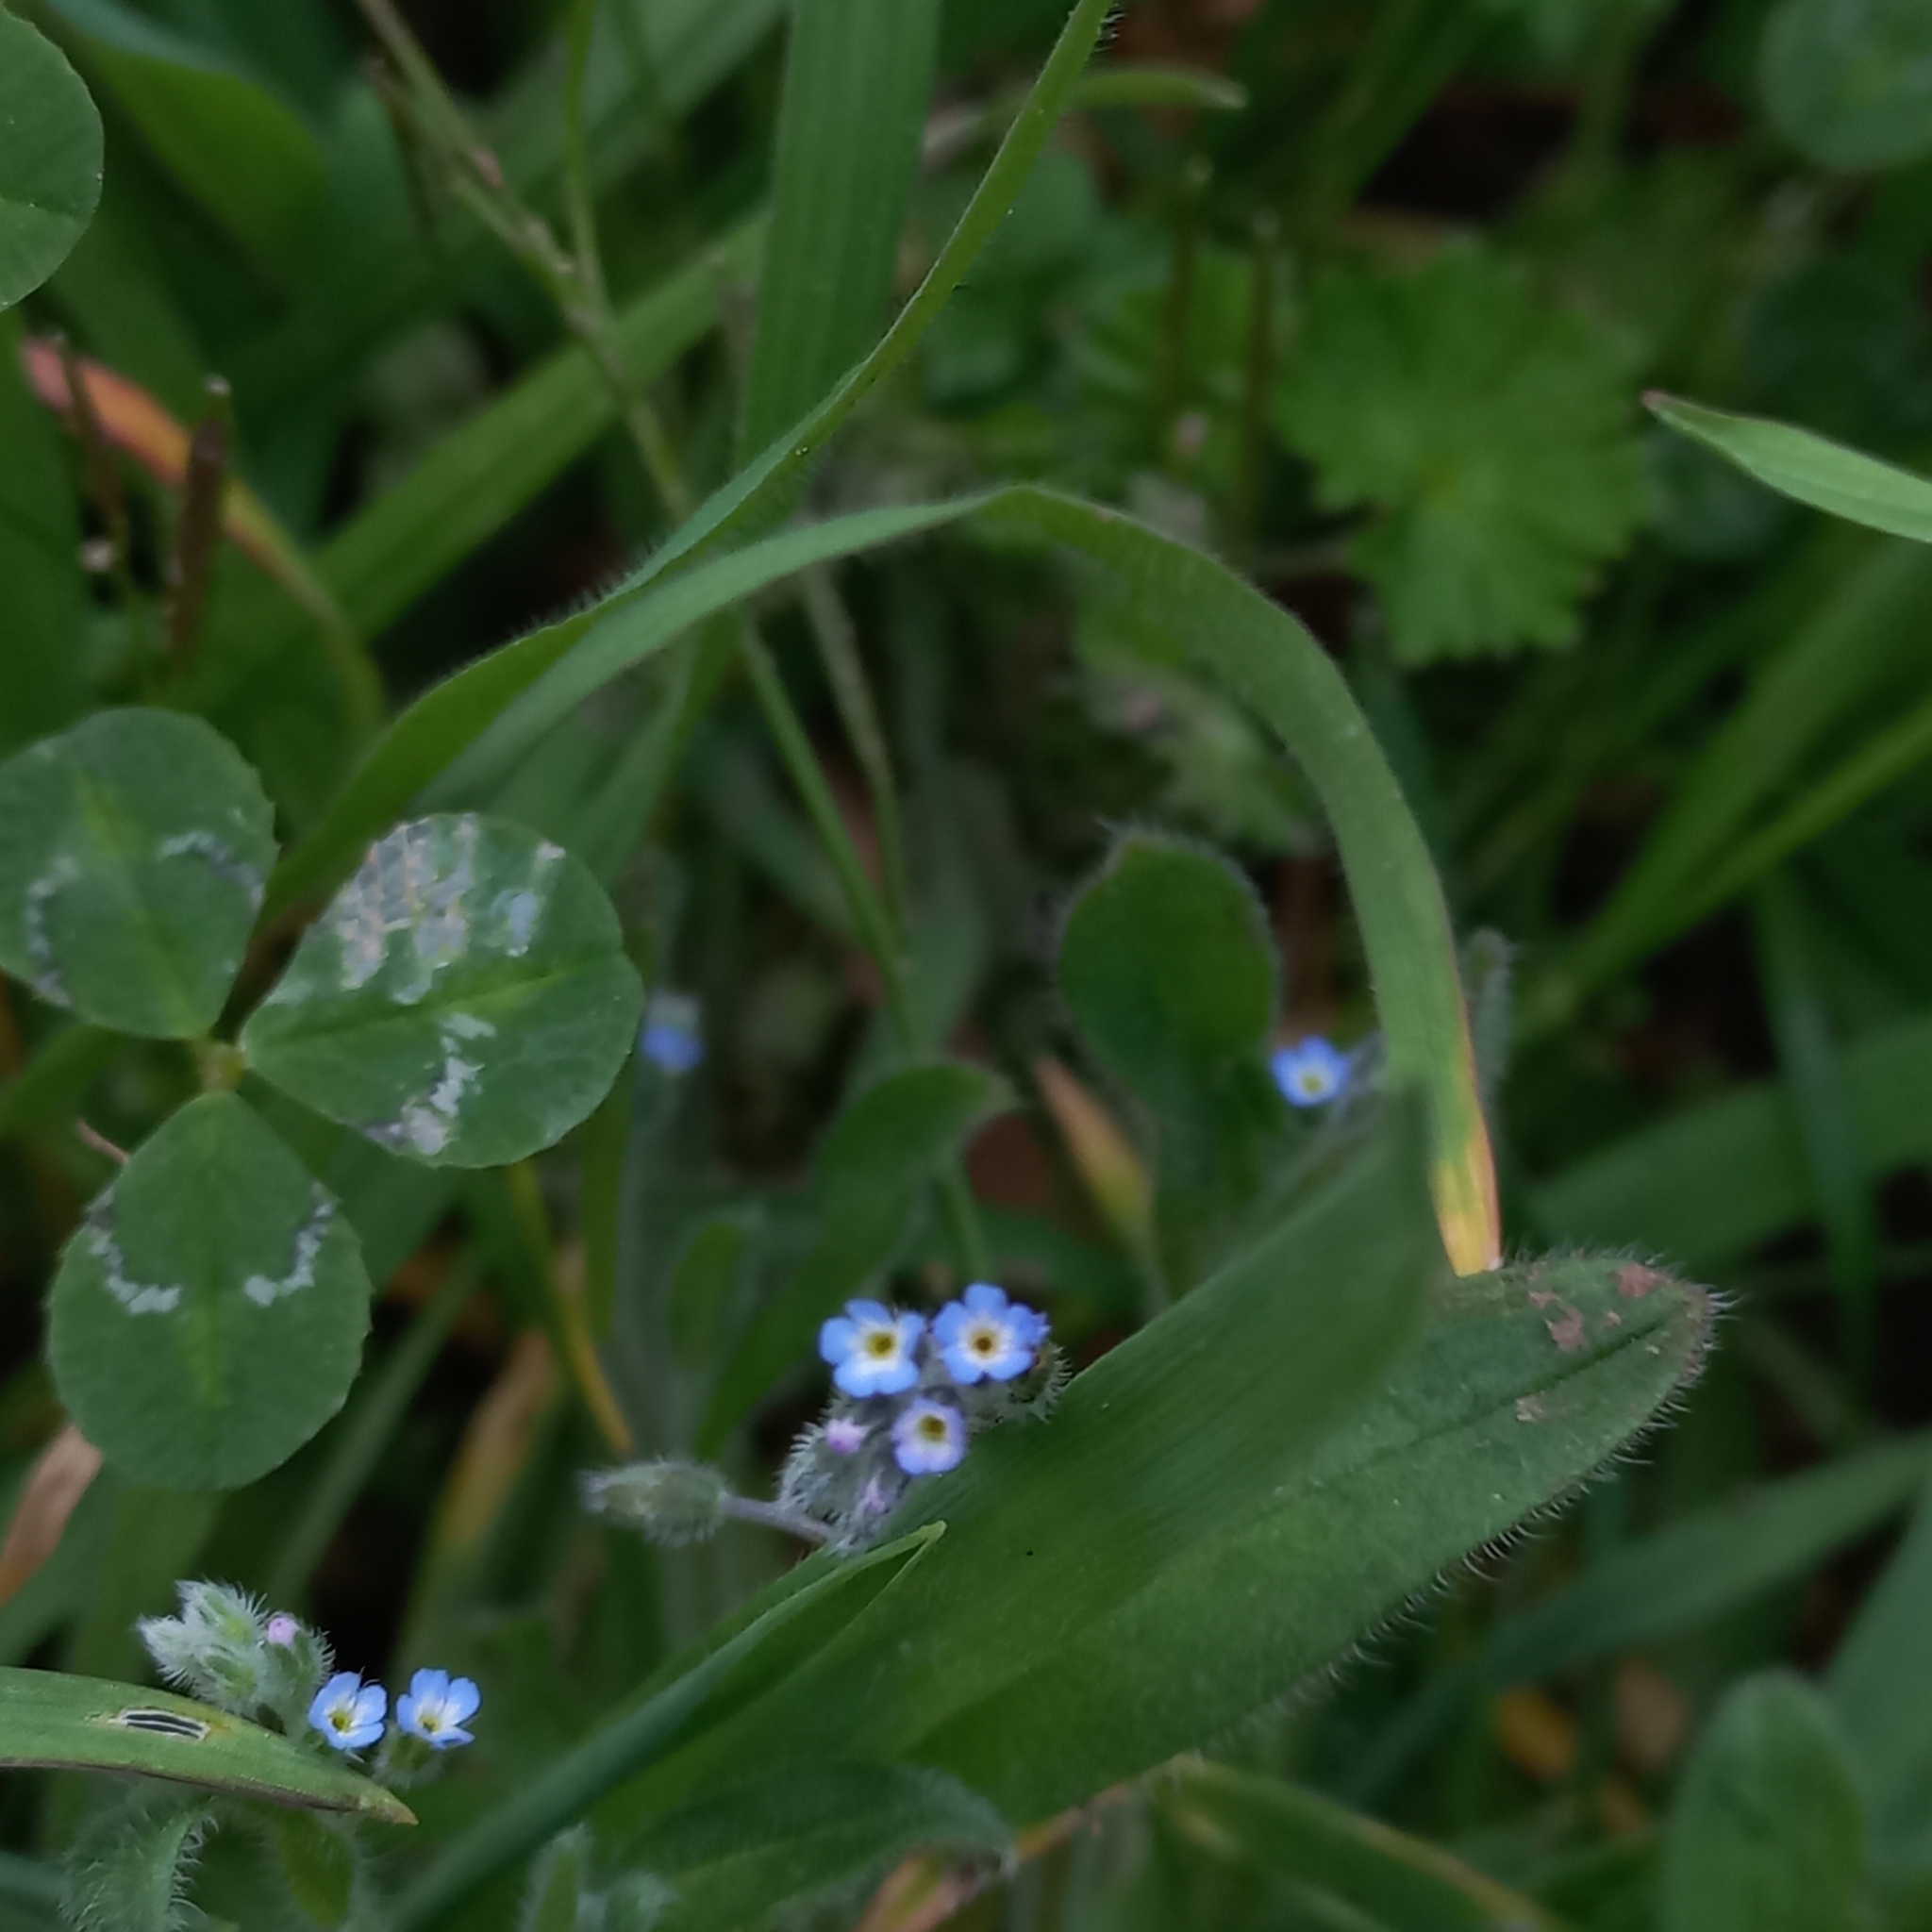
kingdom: Plantae
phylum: Tracheophyta
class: Magnoliopsida
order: Boraginales
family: Boraginaceae
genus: Myosotis
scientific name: Myosotis ramosissima
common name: Early forget-me-not
